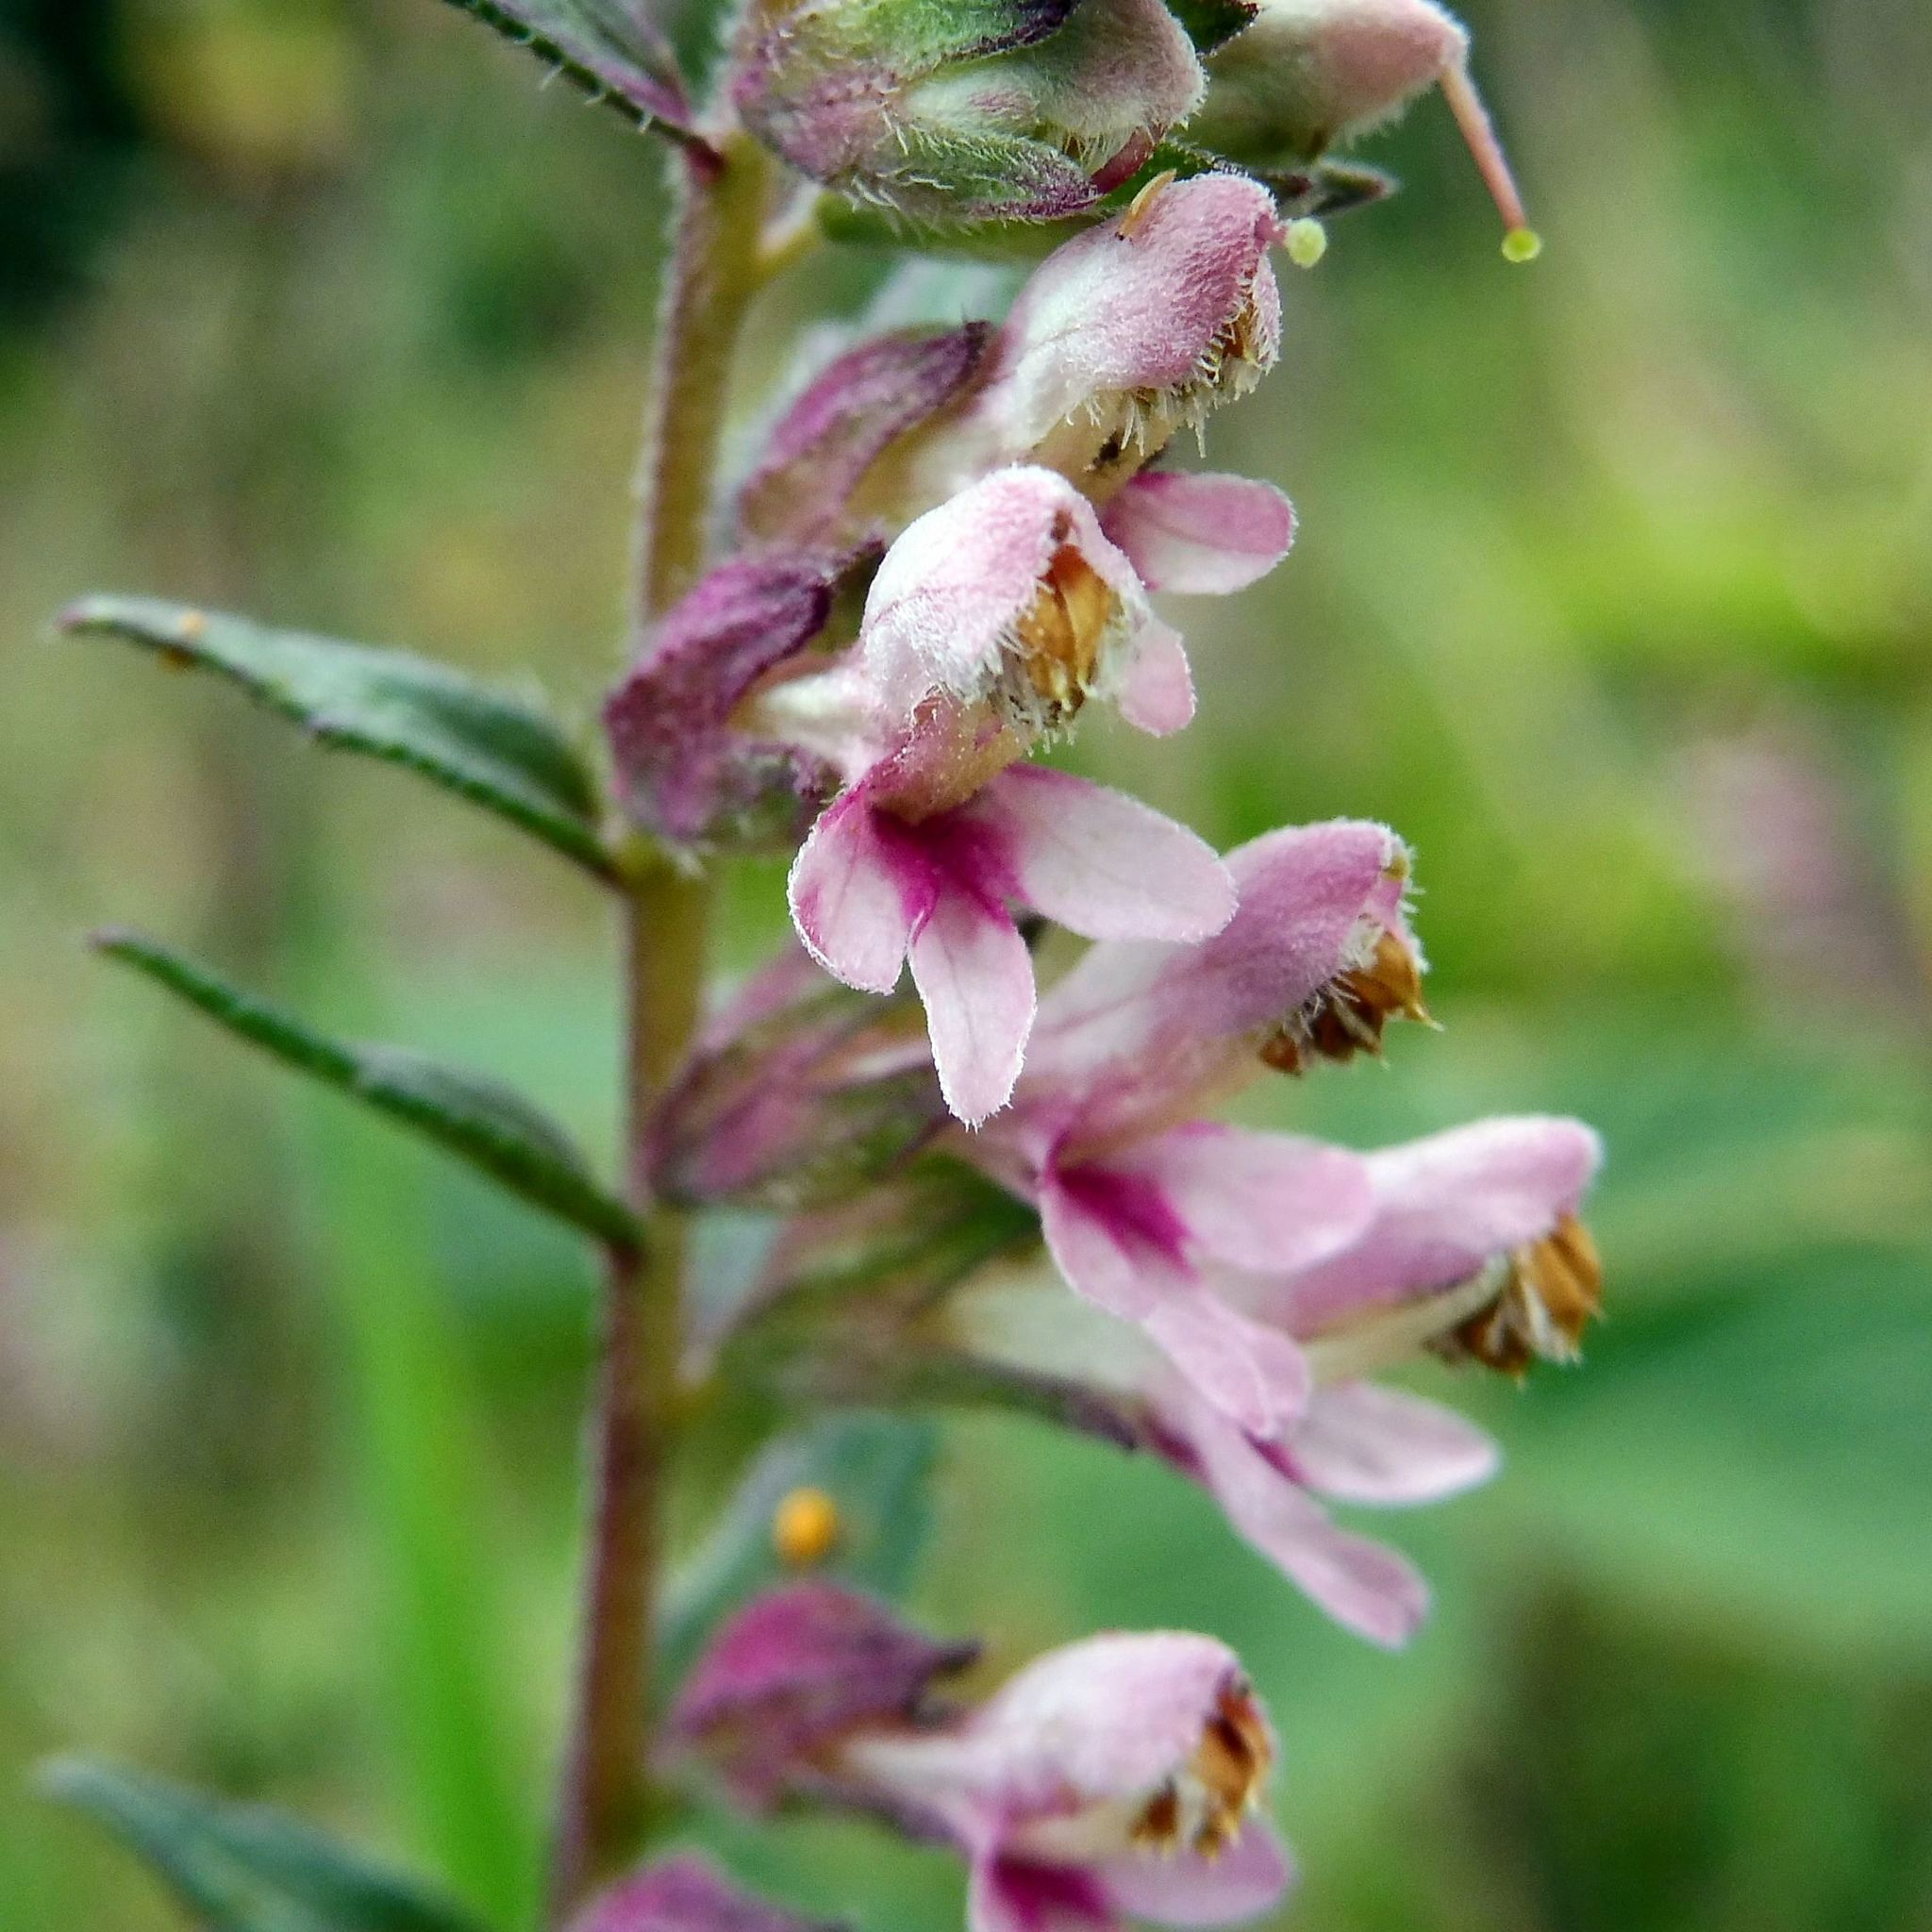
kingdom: Plantae
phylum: Tracheophyta
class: Magnoliopsida
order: Lamiales
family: Orobanchaceae
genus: Odontites
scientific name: Odontites vulgaris
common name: Broomrape
